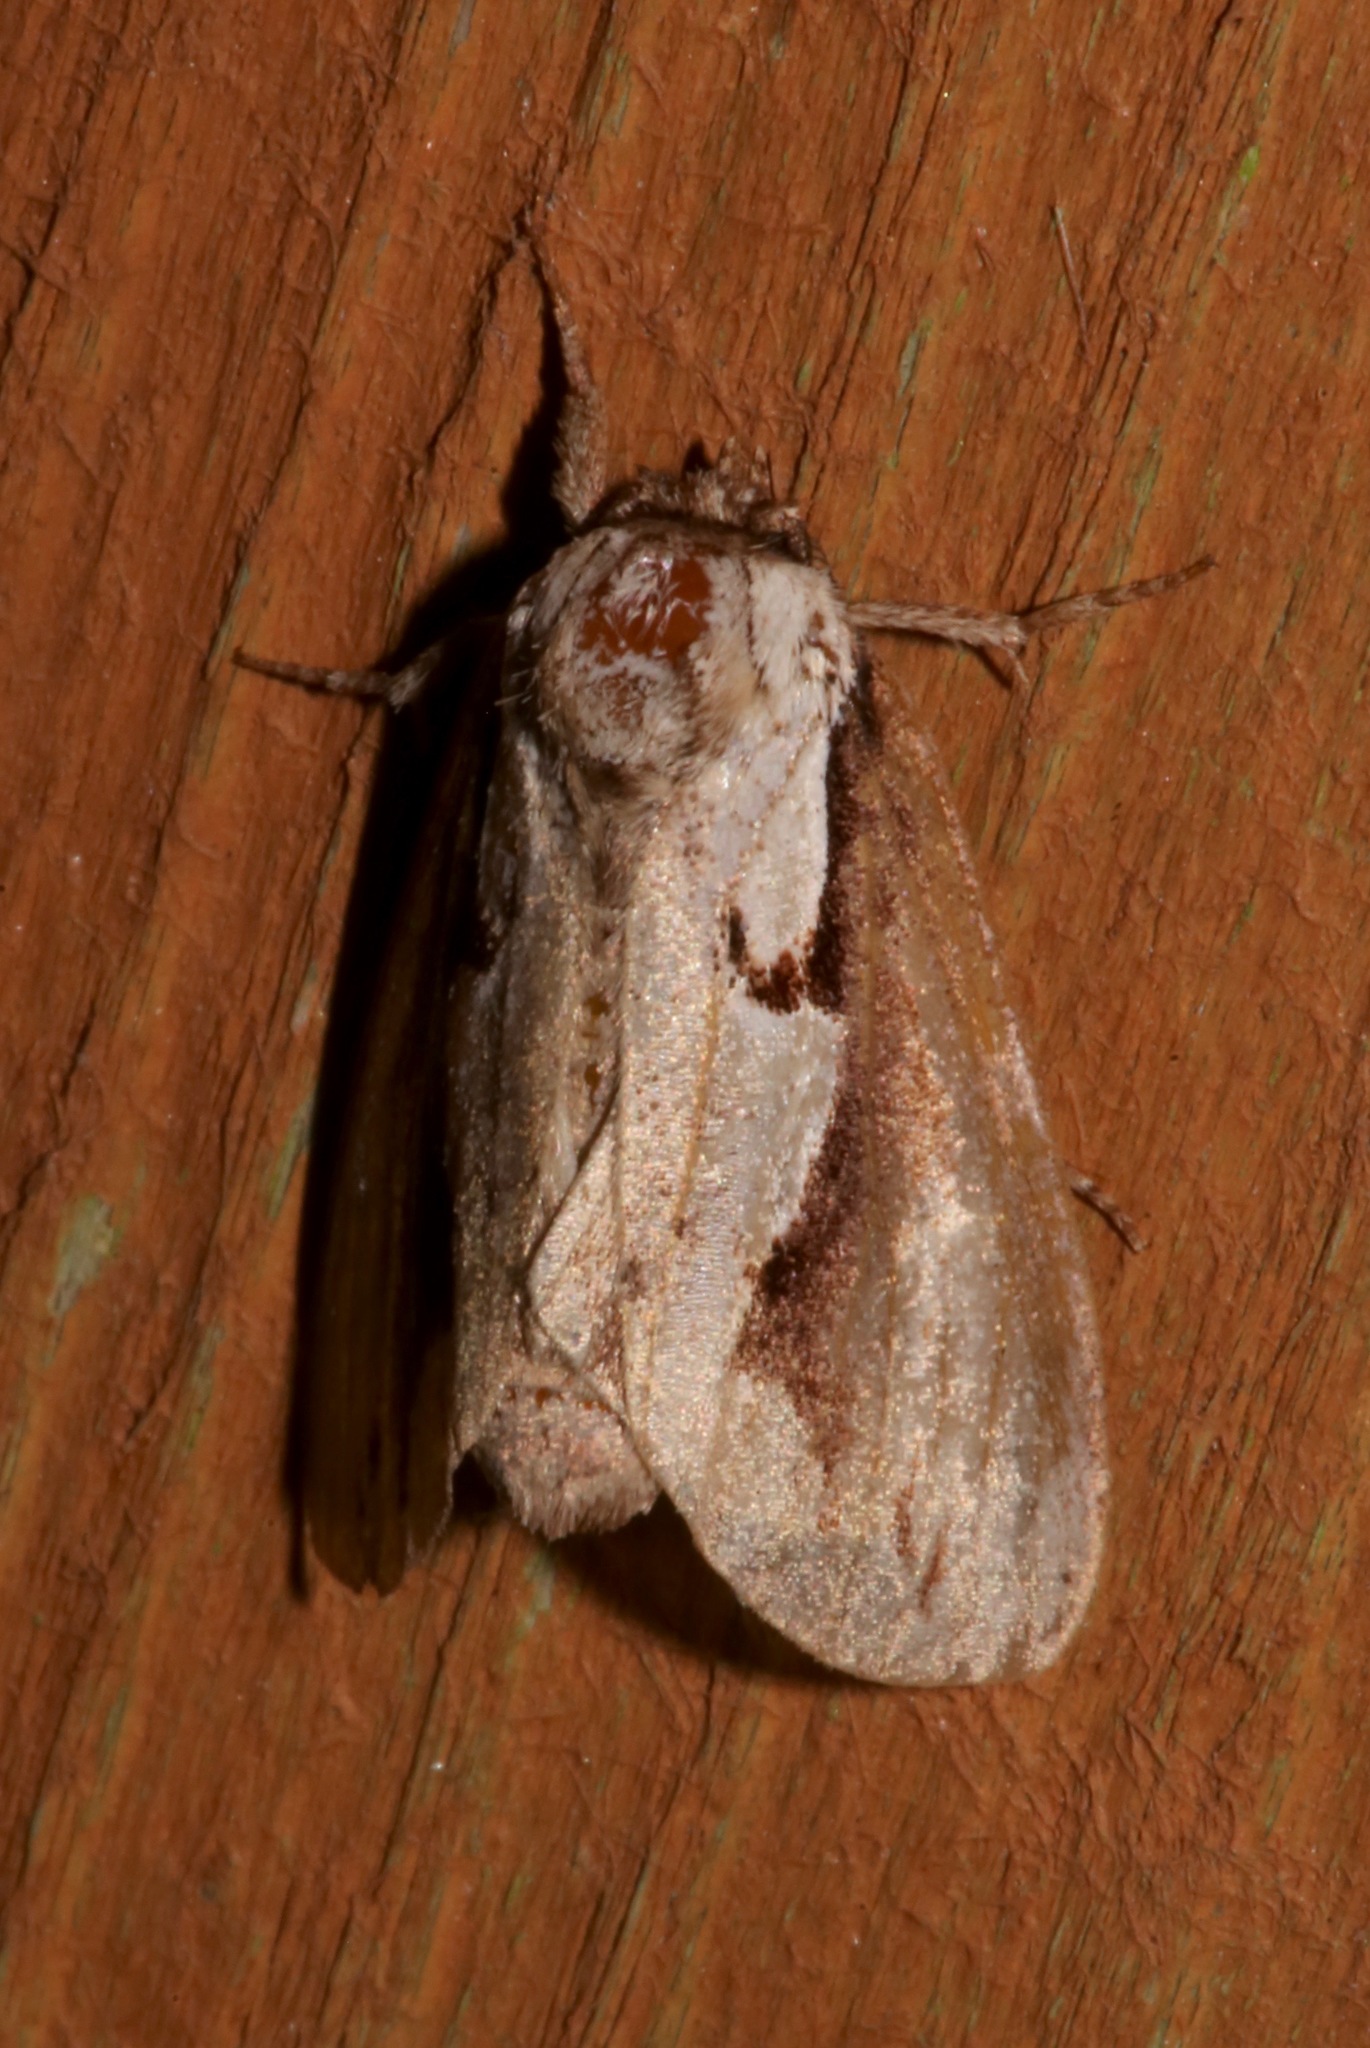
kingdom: Animalia
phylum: Arthropoda
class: Insecta
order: Lepidoptera
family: Notodontidae
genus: Nerice
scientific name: Nerice bidentata
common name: Double-toothed prominent
